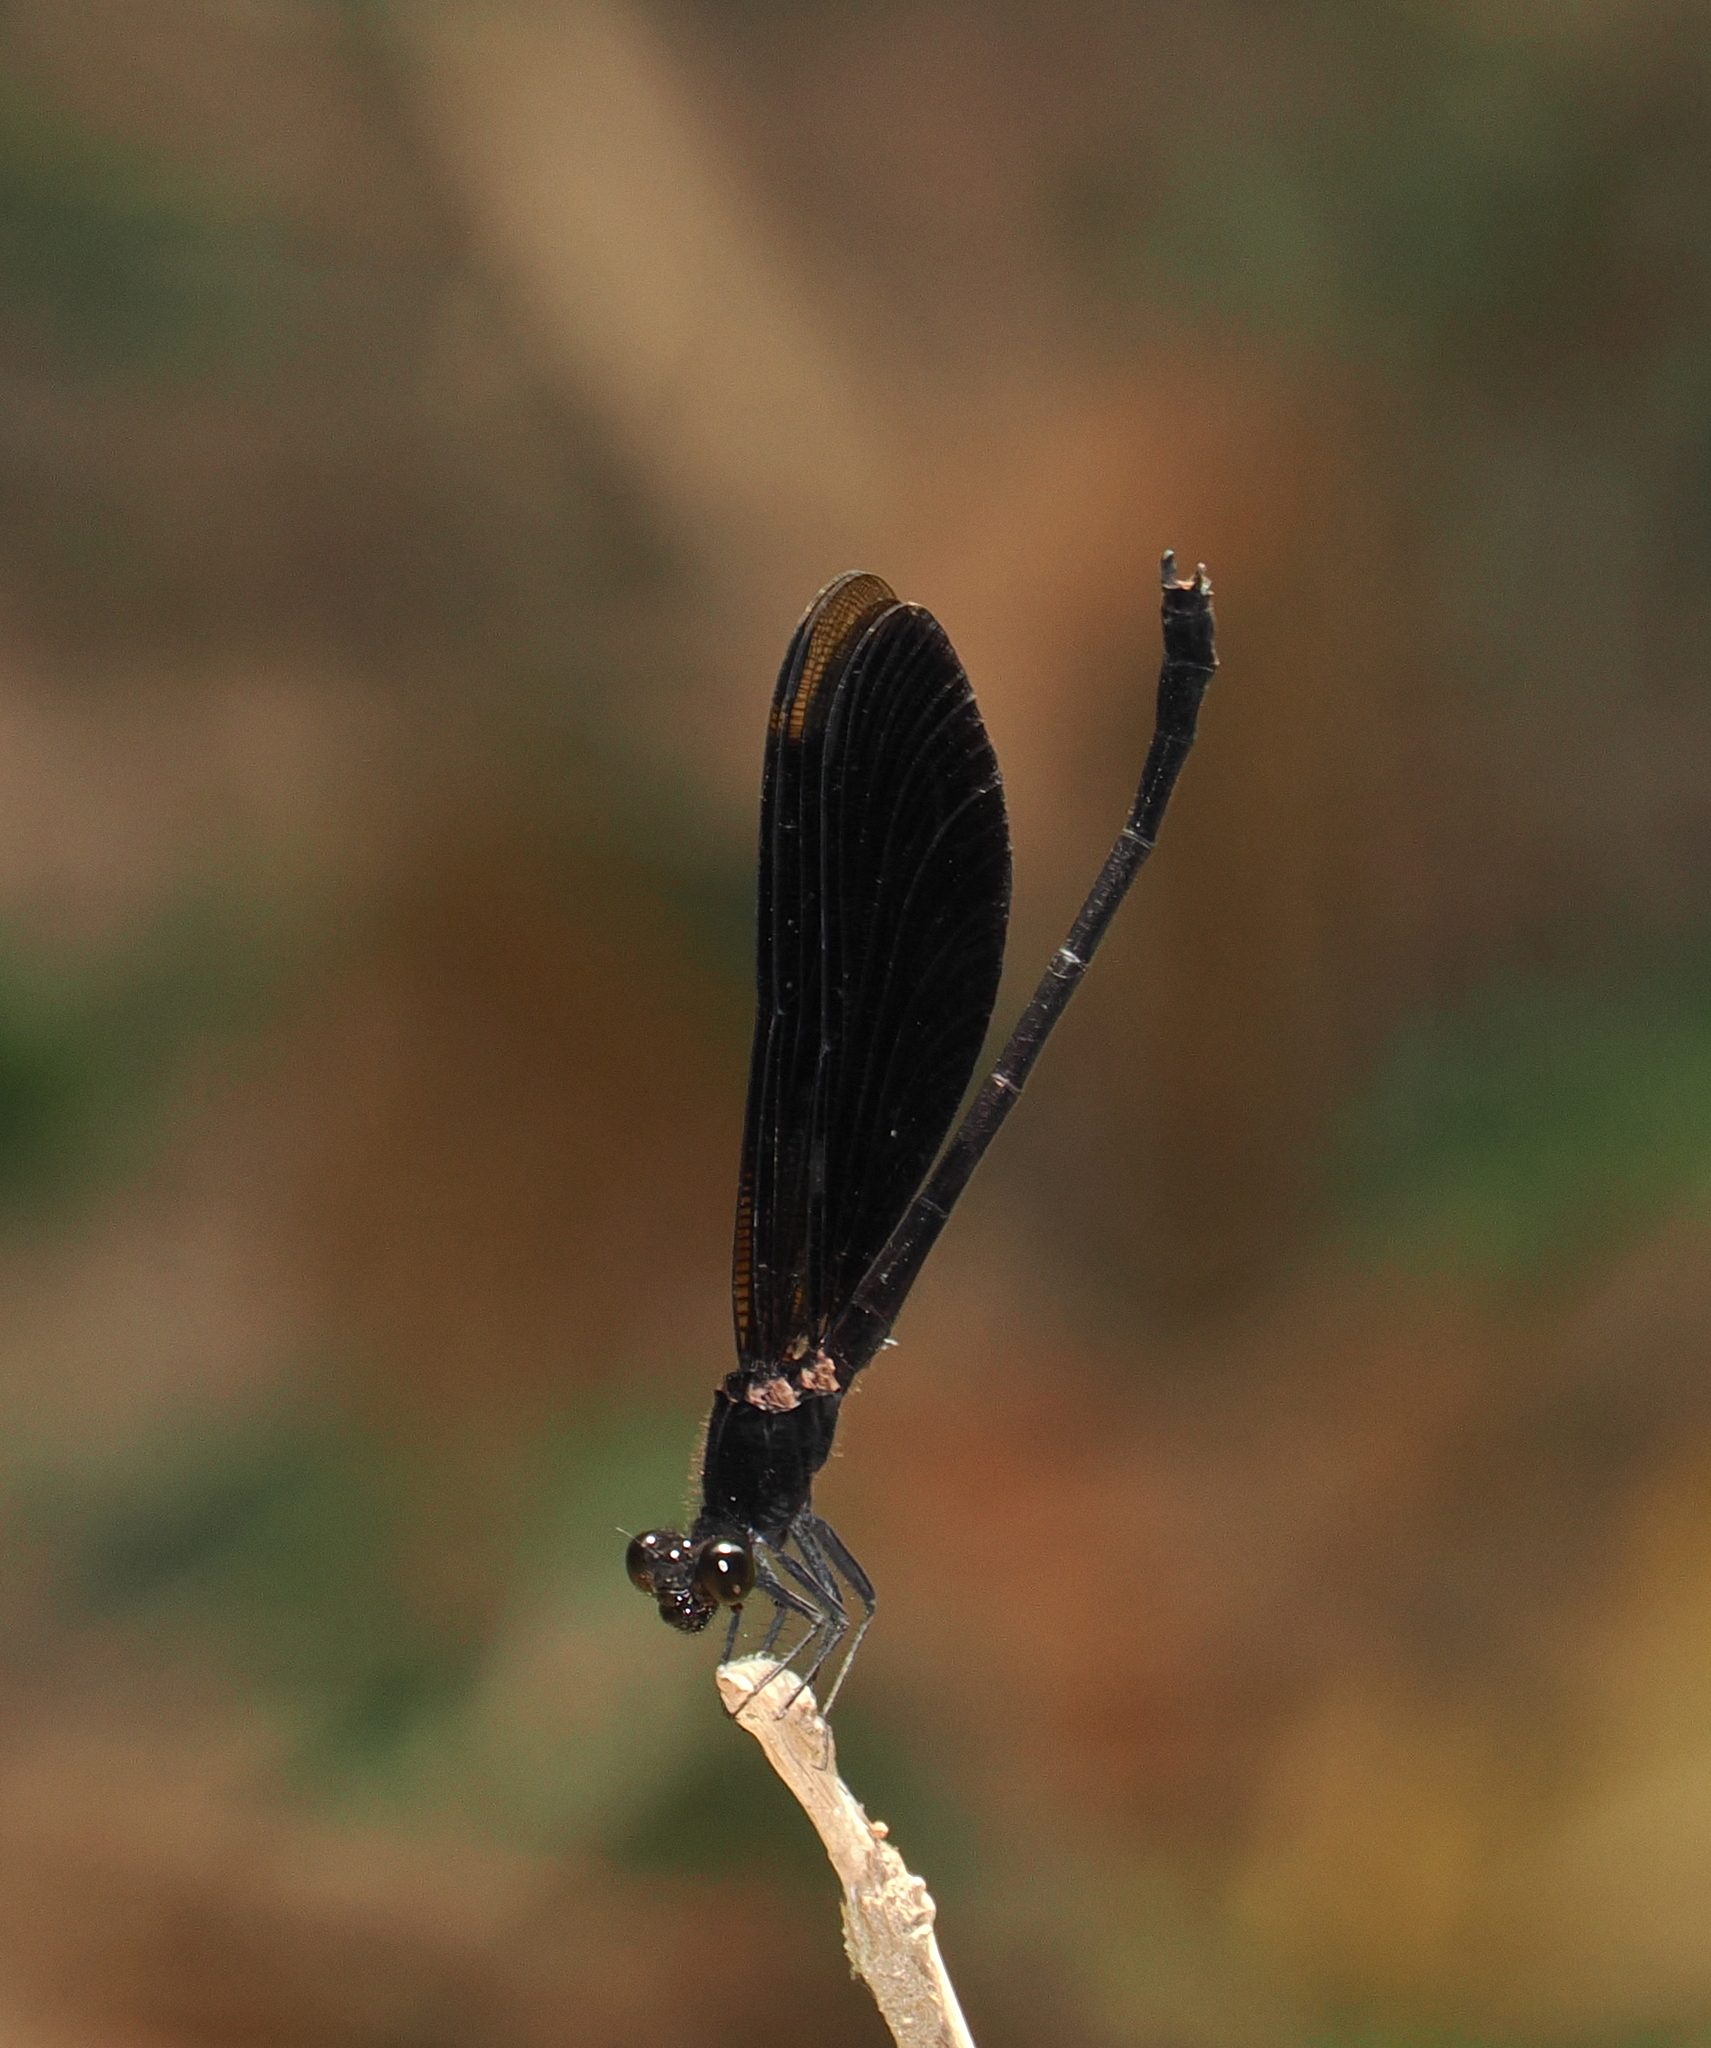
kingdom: Animalia
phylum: Arthropoda
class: Insecta
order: Odonata
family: Euphaeidae
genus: Euphaea
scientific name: Euphaea masoni
